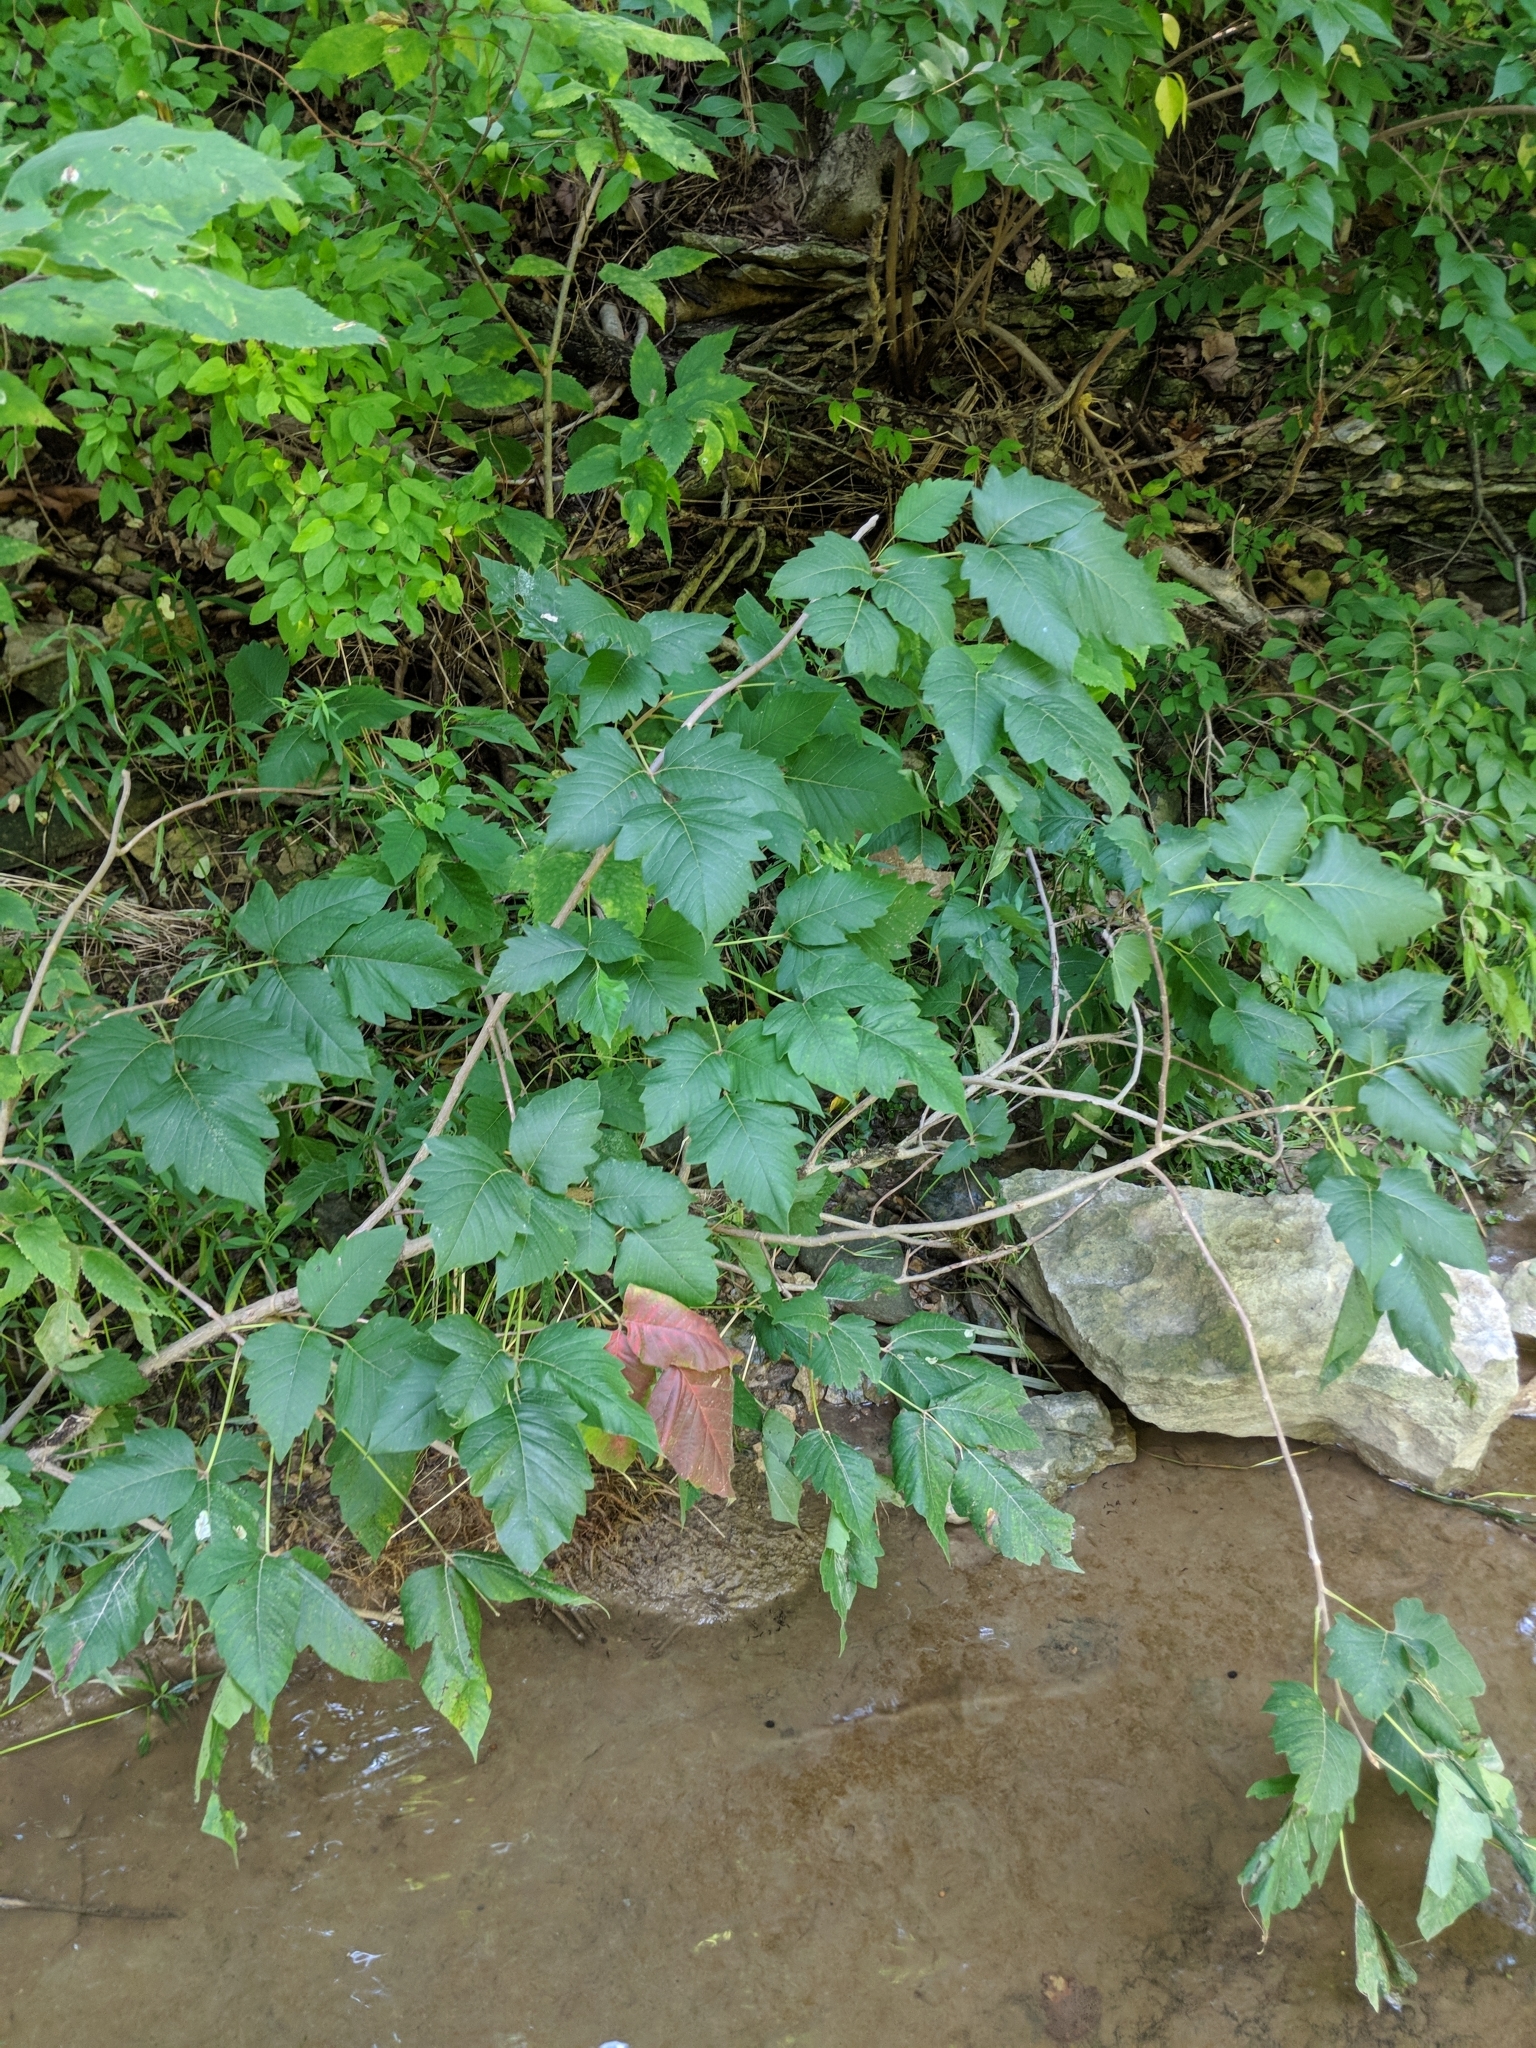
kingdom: Plantae
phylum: Tracheophyta
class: Magnoliopsida
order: Sapindales
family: Anacardiaceae
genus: Toxicodendron
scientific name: Toxicodendron radicans
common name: Poison ivy
